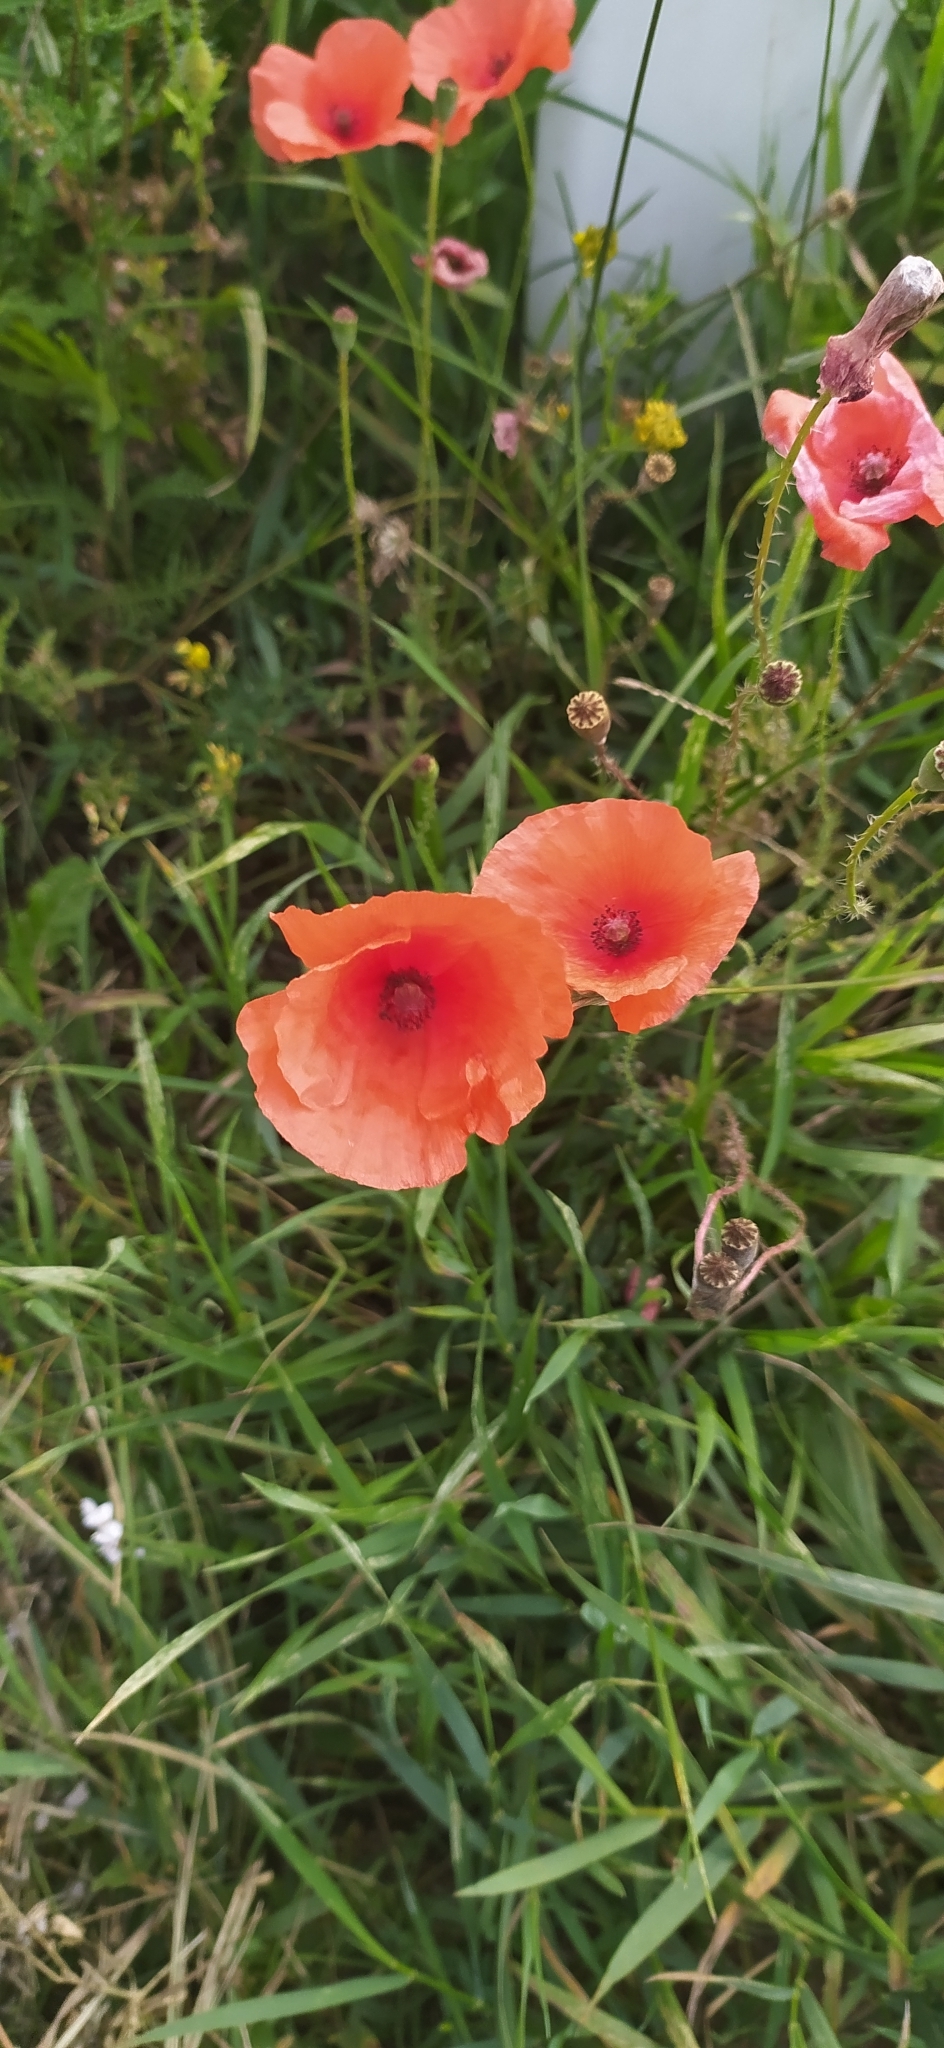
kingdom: Plantae
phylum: Tracheophyta
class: Magnoliopsida
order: Ranunculales
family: Papaveraceae
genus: Papaver
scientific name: Papaver rhoeas
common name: Corn poppy
